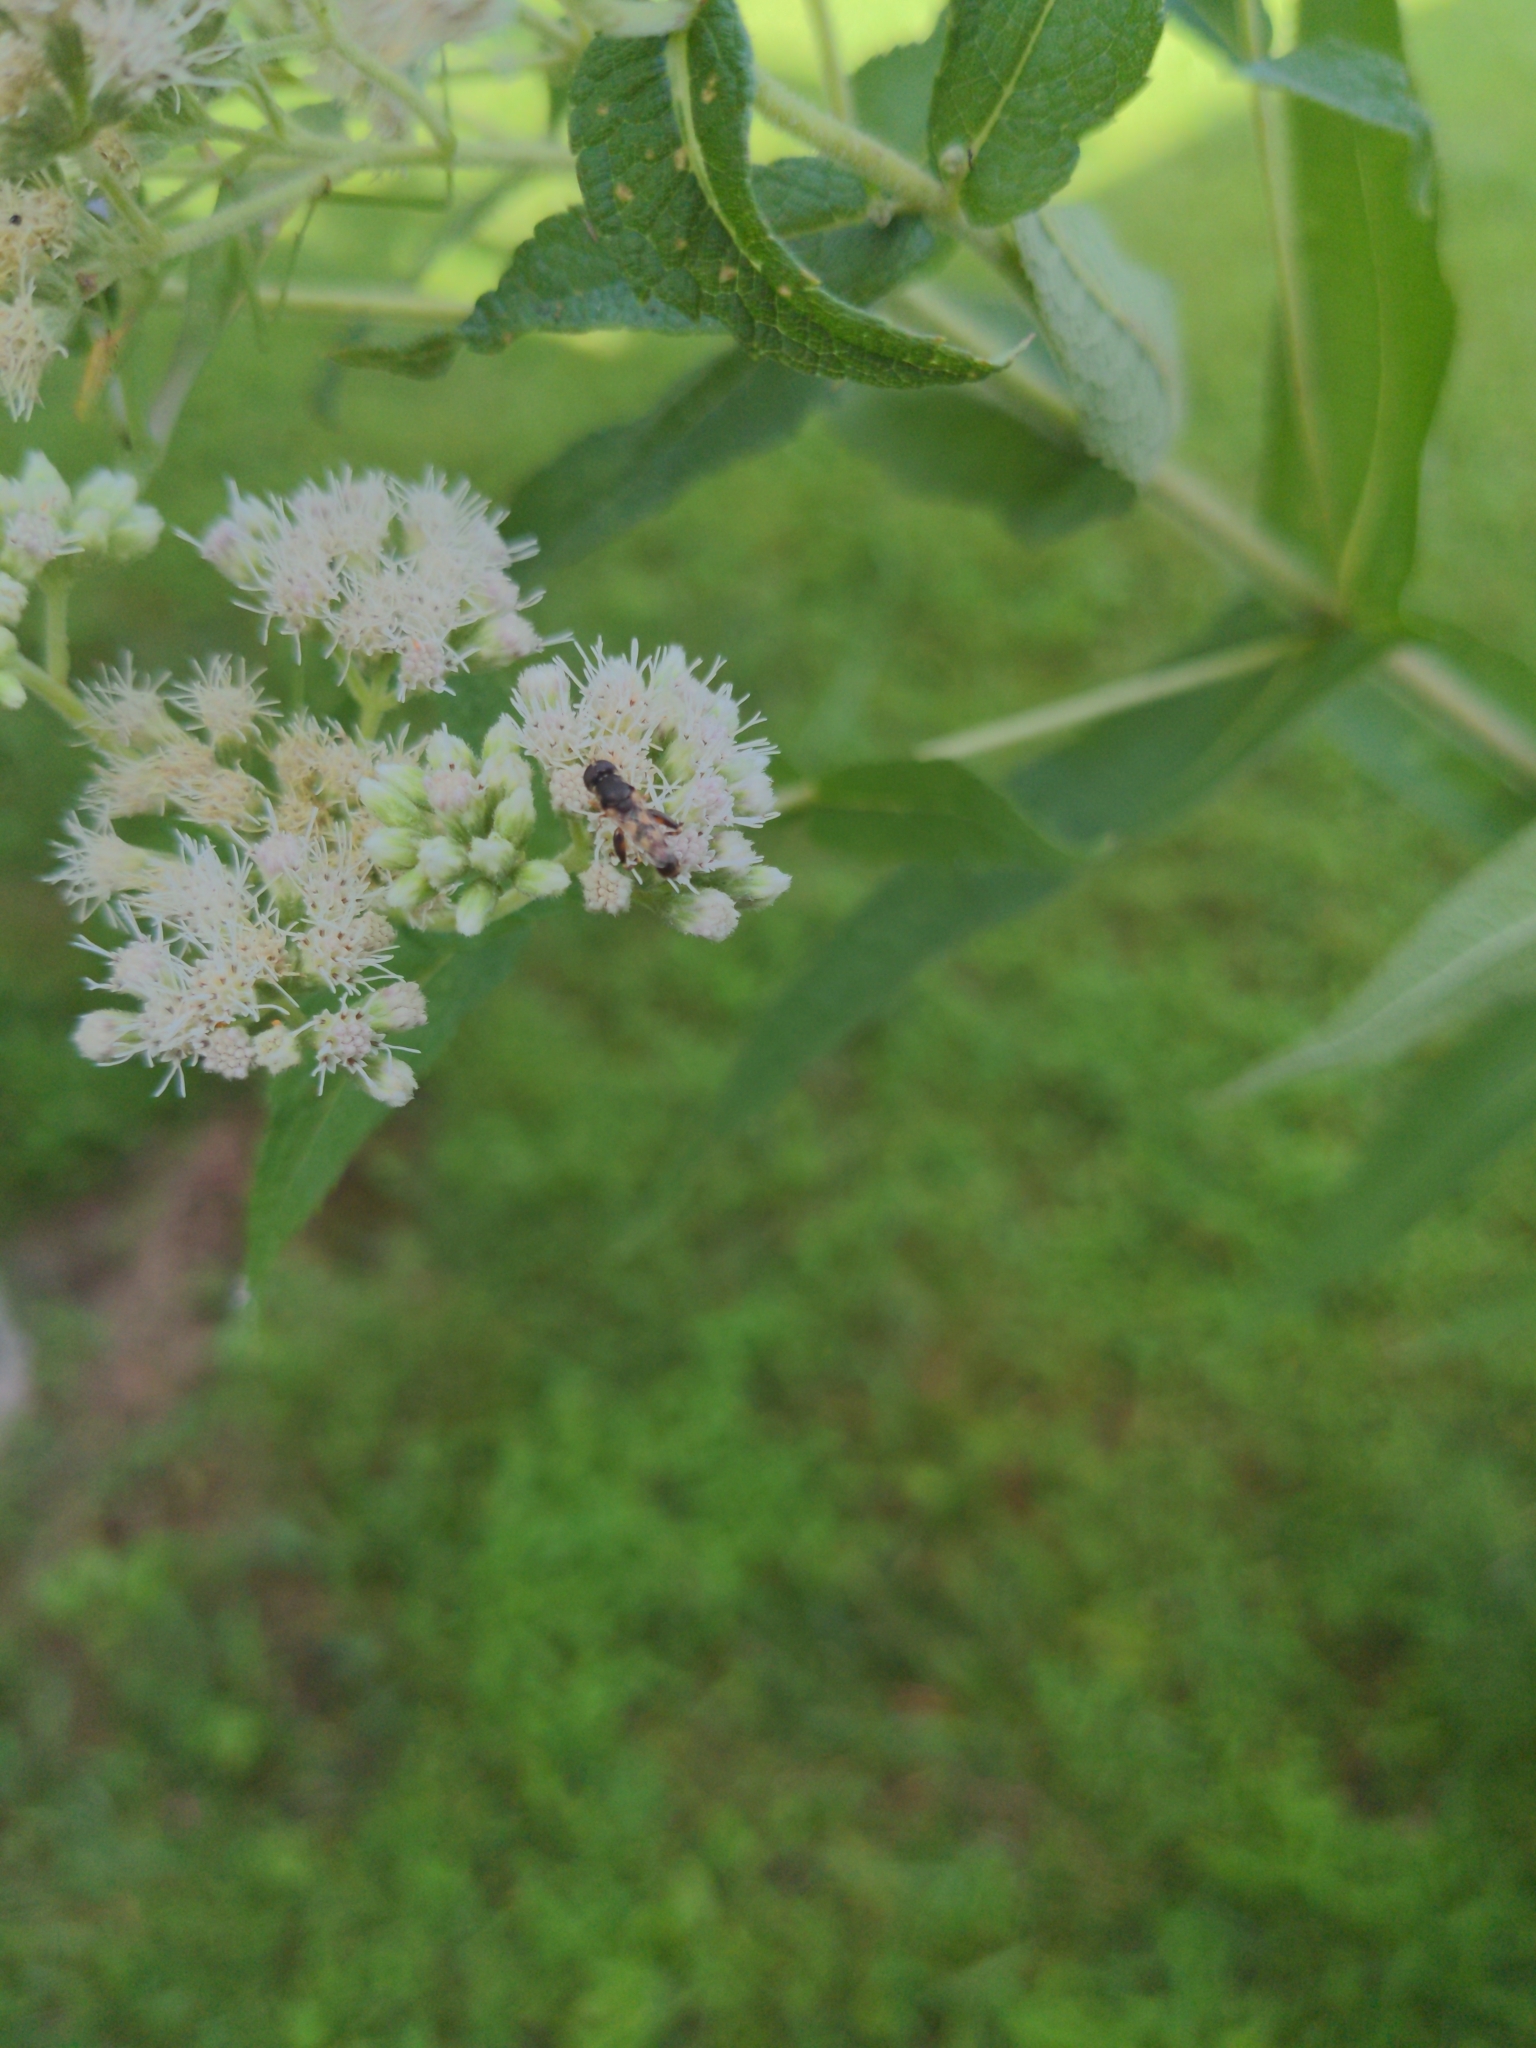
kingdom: Animalia
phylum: Arthropoda
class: Insecta
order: Diptera
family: Syrphidae
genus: Syritta
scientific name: Syritta pipiens
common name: Hover fly
